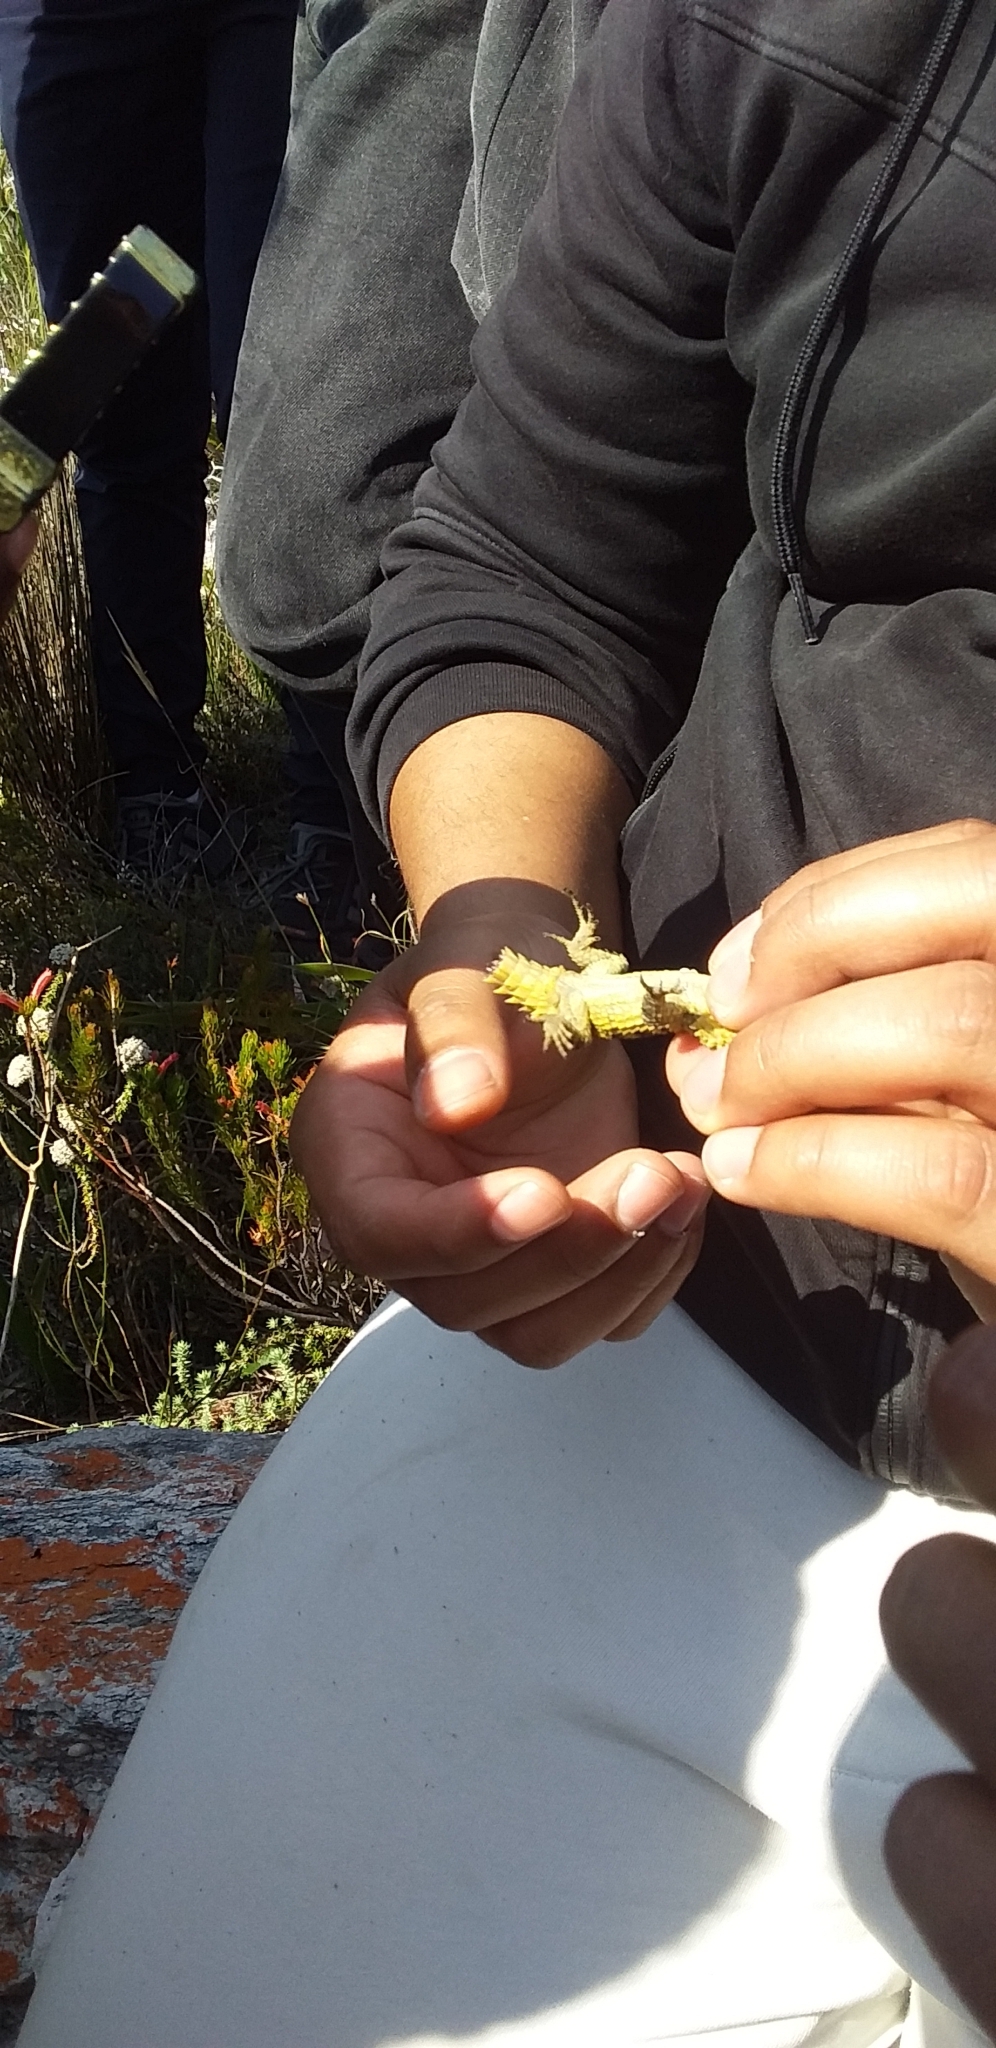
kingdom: Animalia
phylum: Chordata
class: Squamata
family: Cordylidae
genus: Cordylus
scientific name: Cordylus cordylus
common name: Cape girdled lizard
